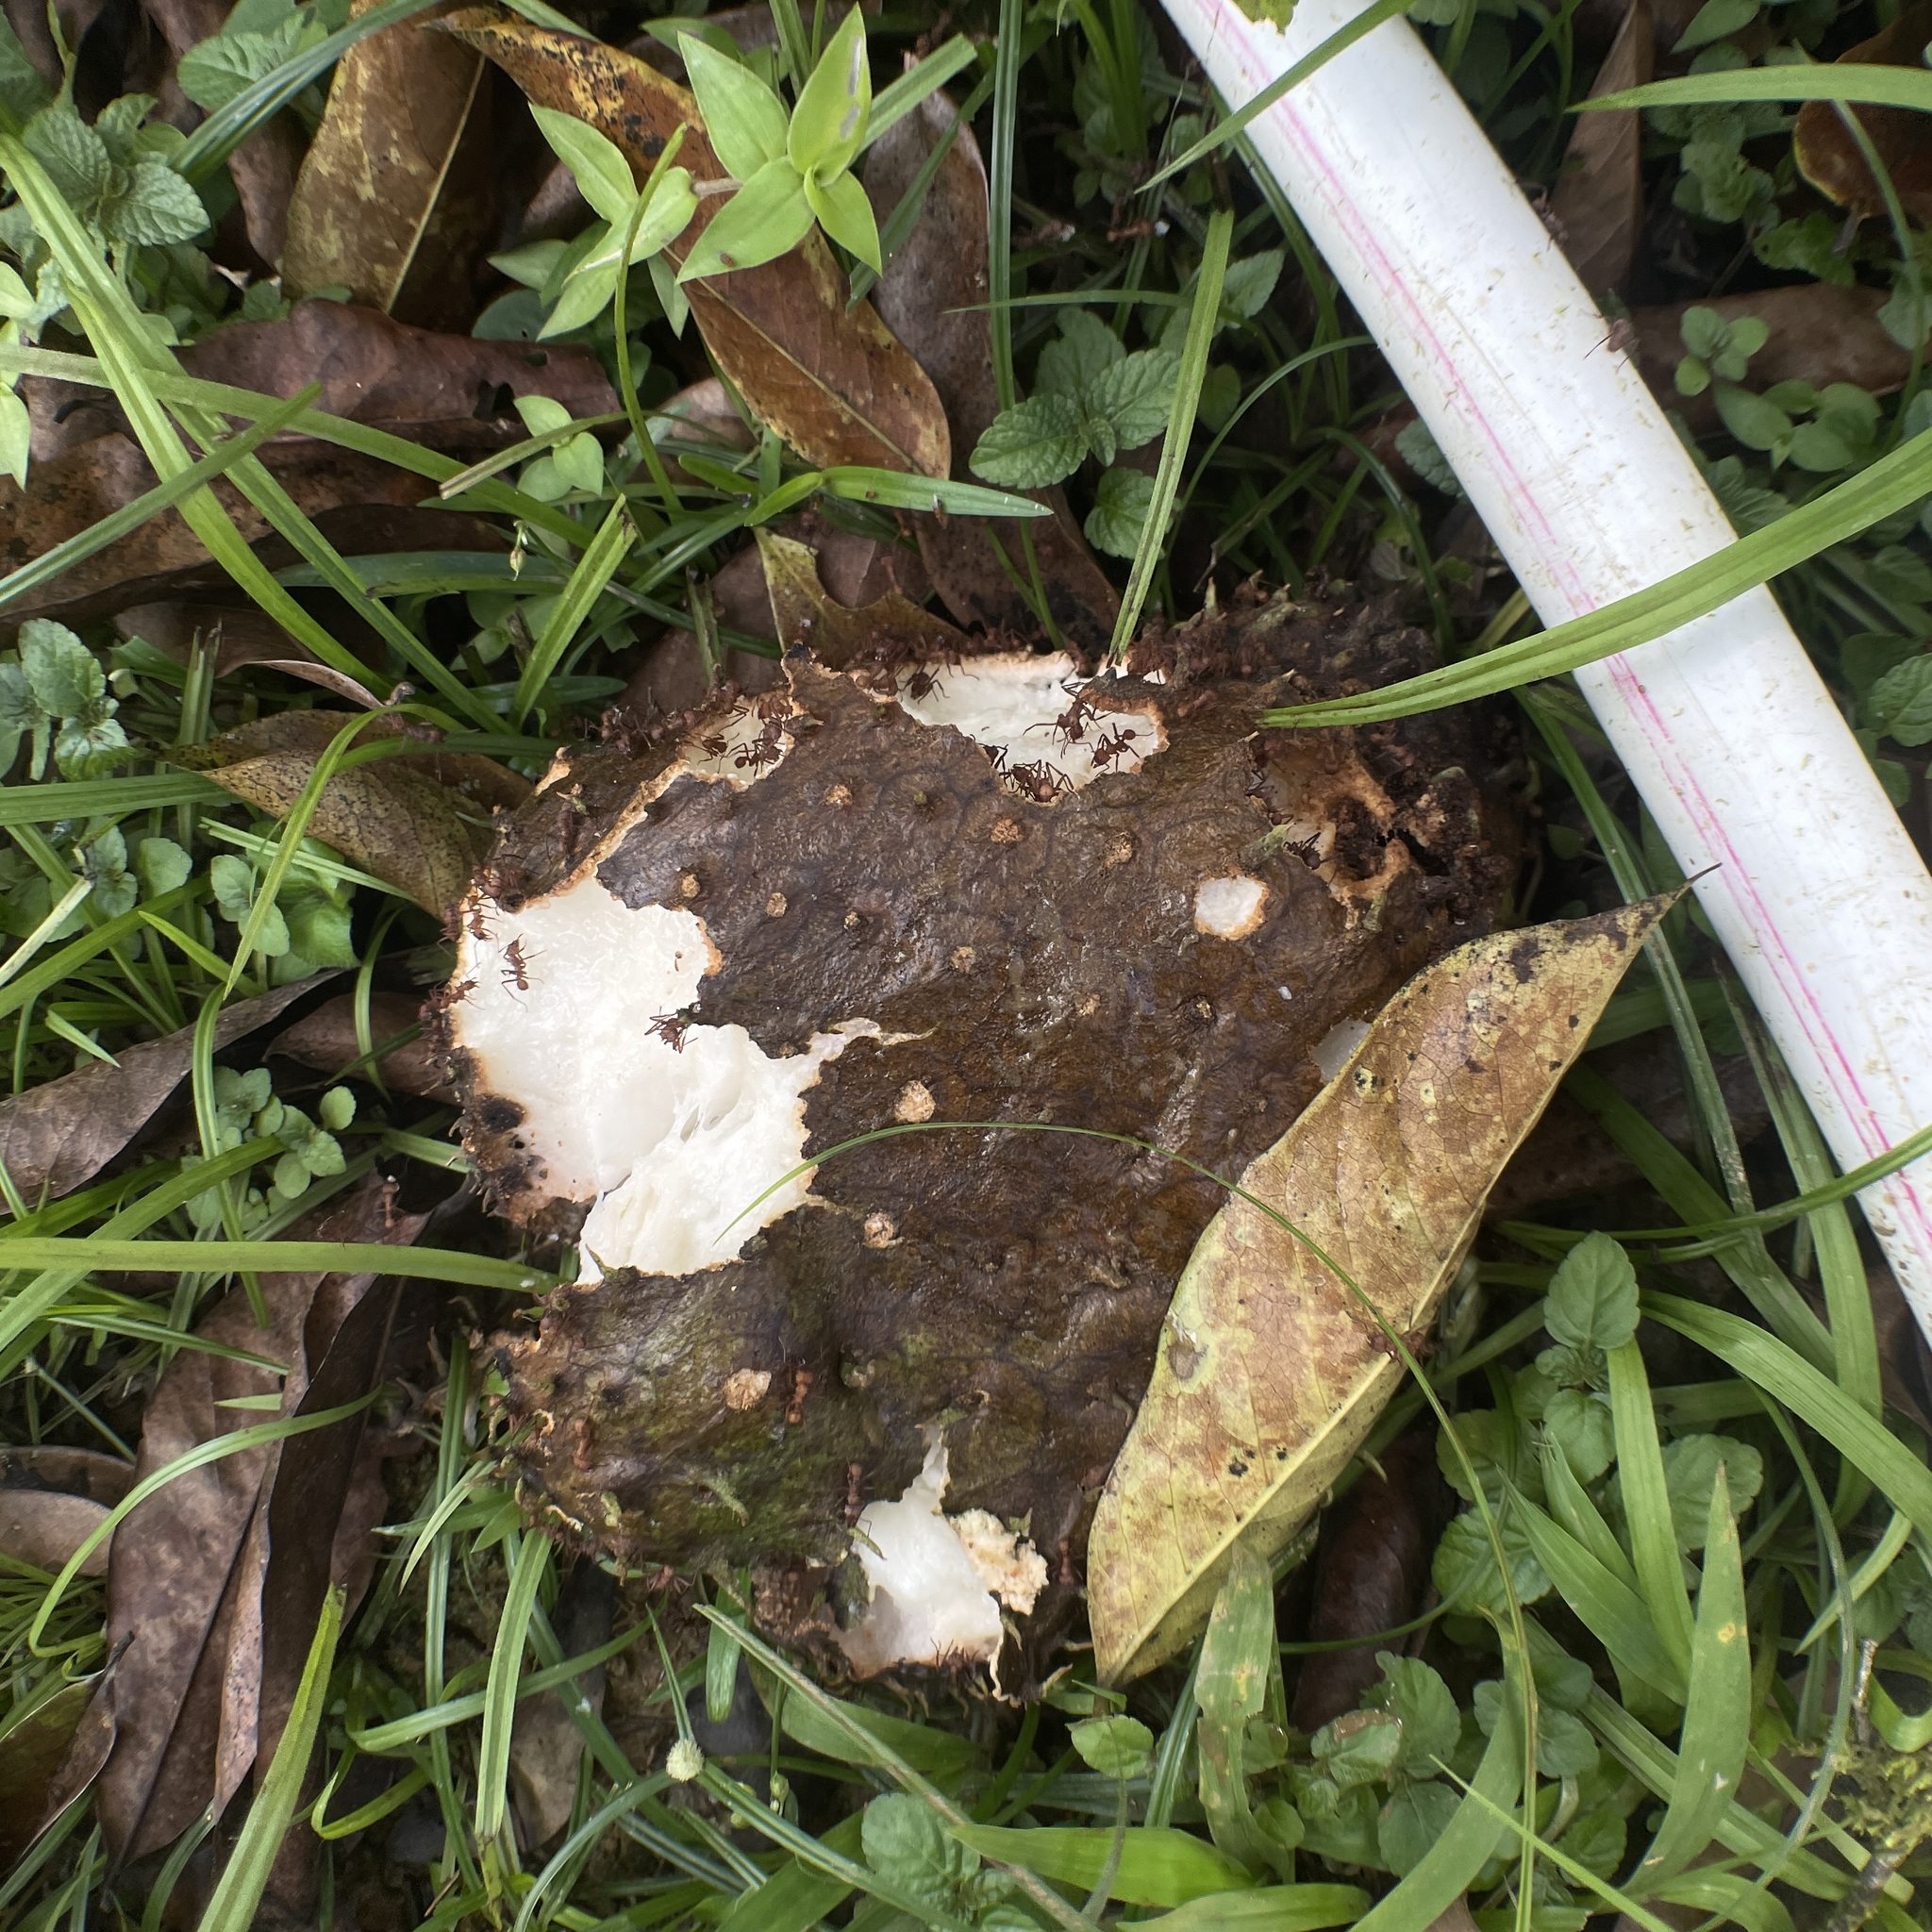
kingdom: Plantae
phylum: Tracheophyta
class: Magnoliopsida
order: Magnoliales
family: Annonaceae
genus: Annona
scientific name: Annona muricata
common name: Soursop
